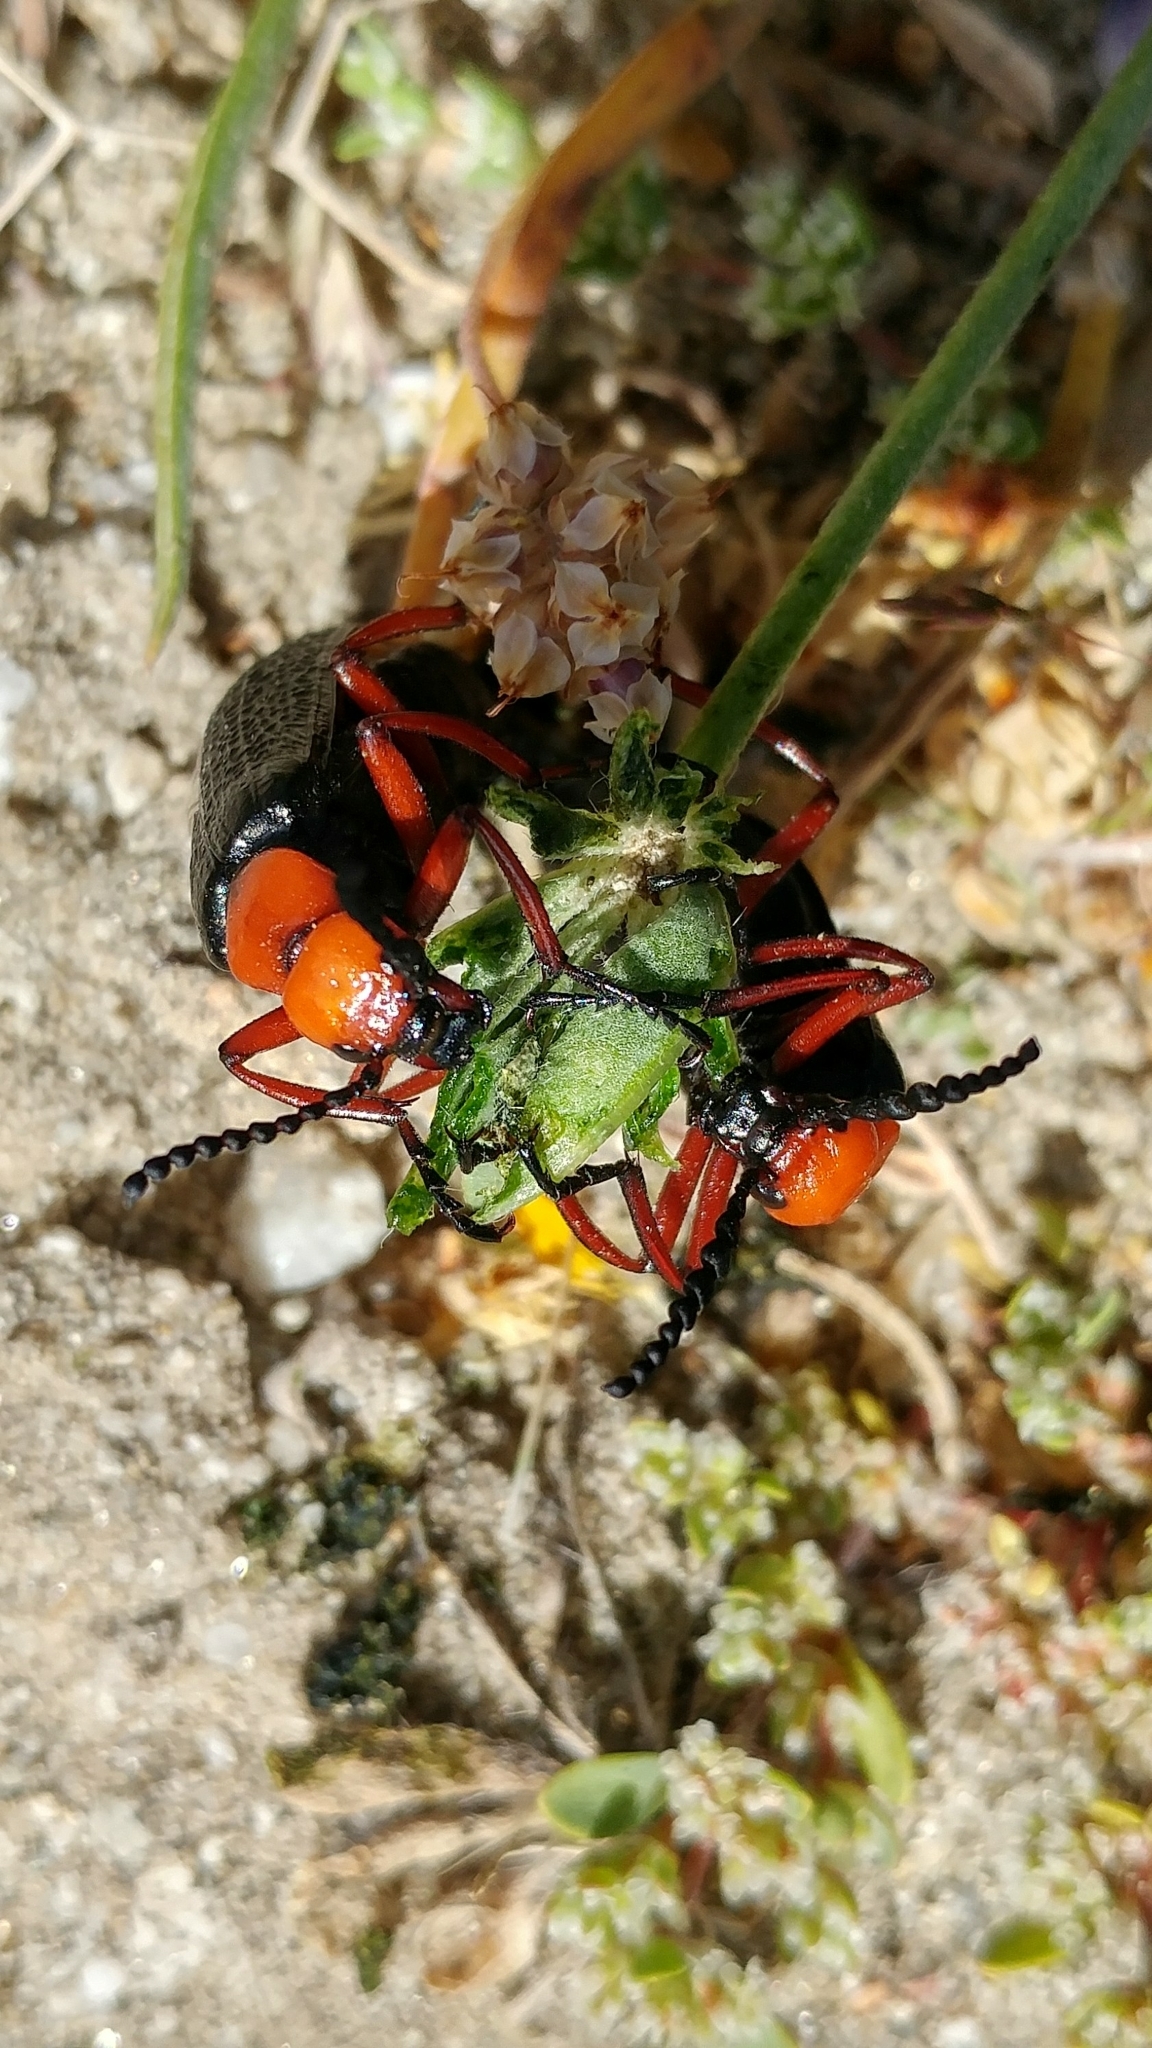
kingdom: Animalia
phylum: Arthropoda
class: Insecta
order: Coleoptera
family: Meloidae
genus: Lytta
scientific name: Lytta magister
